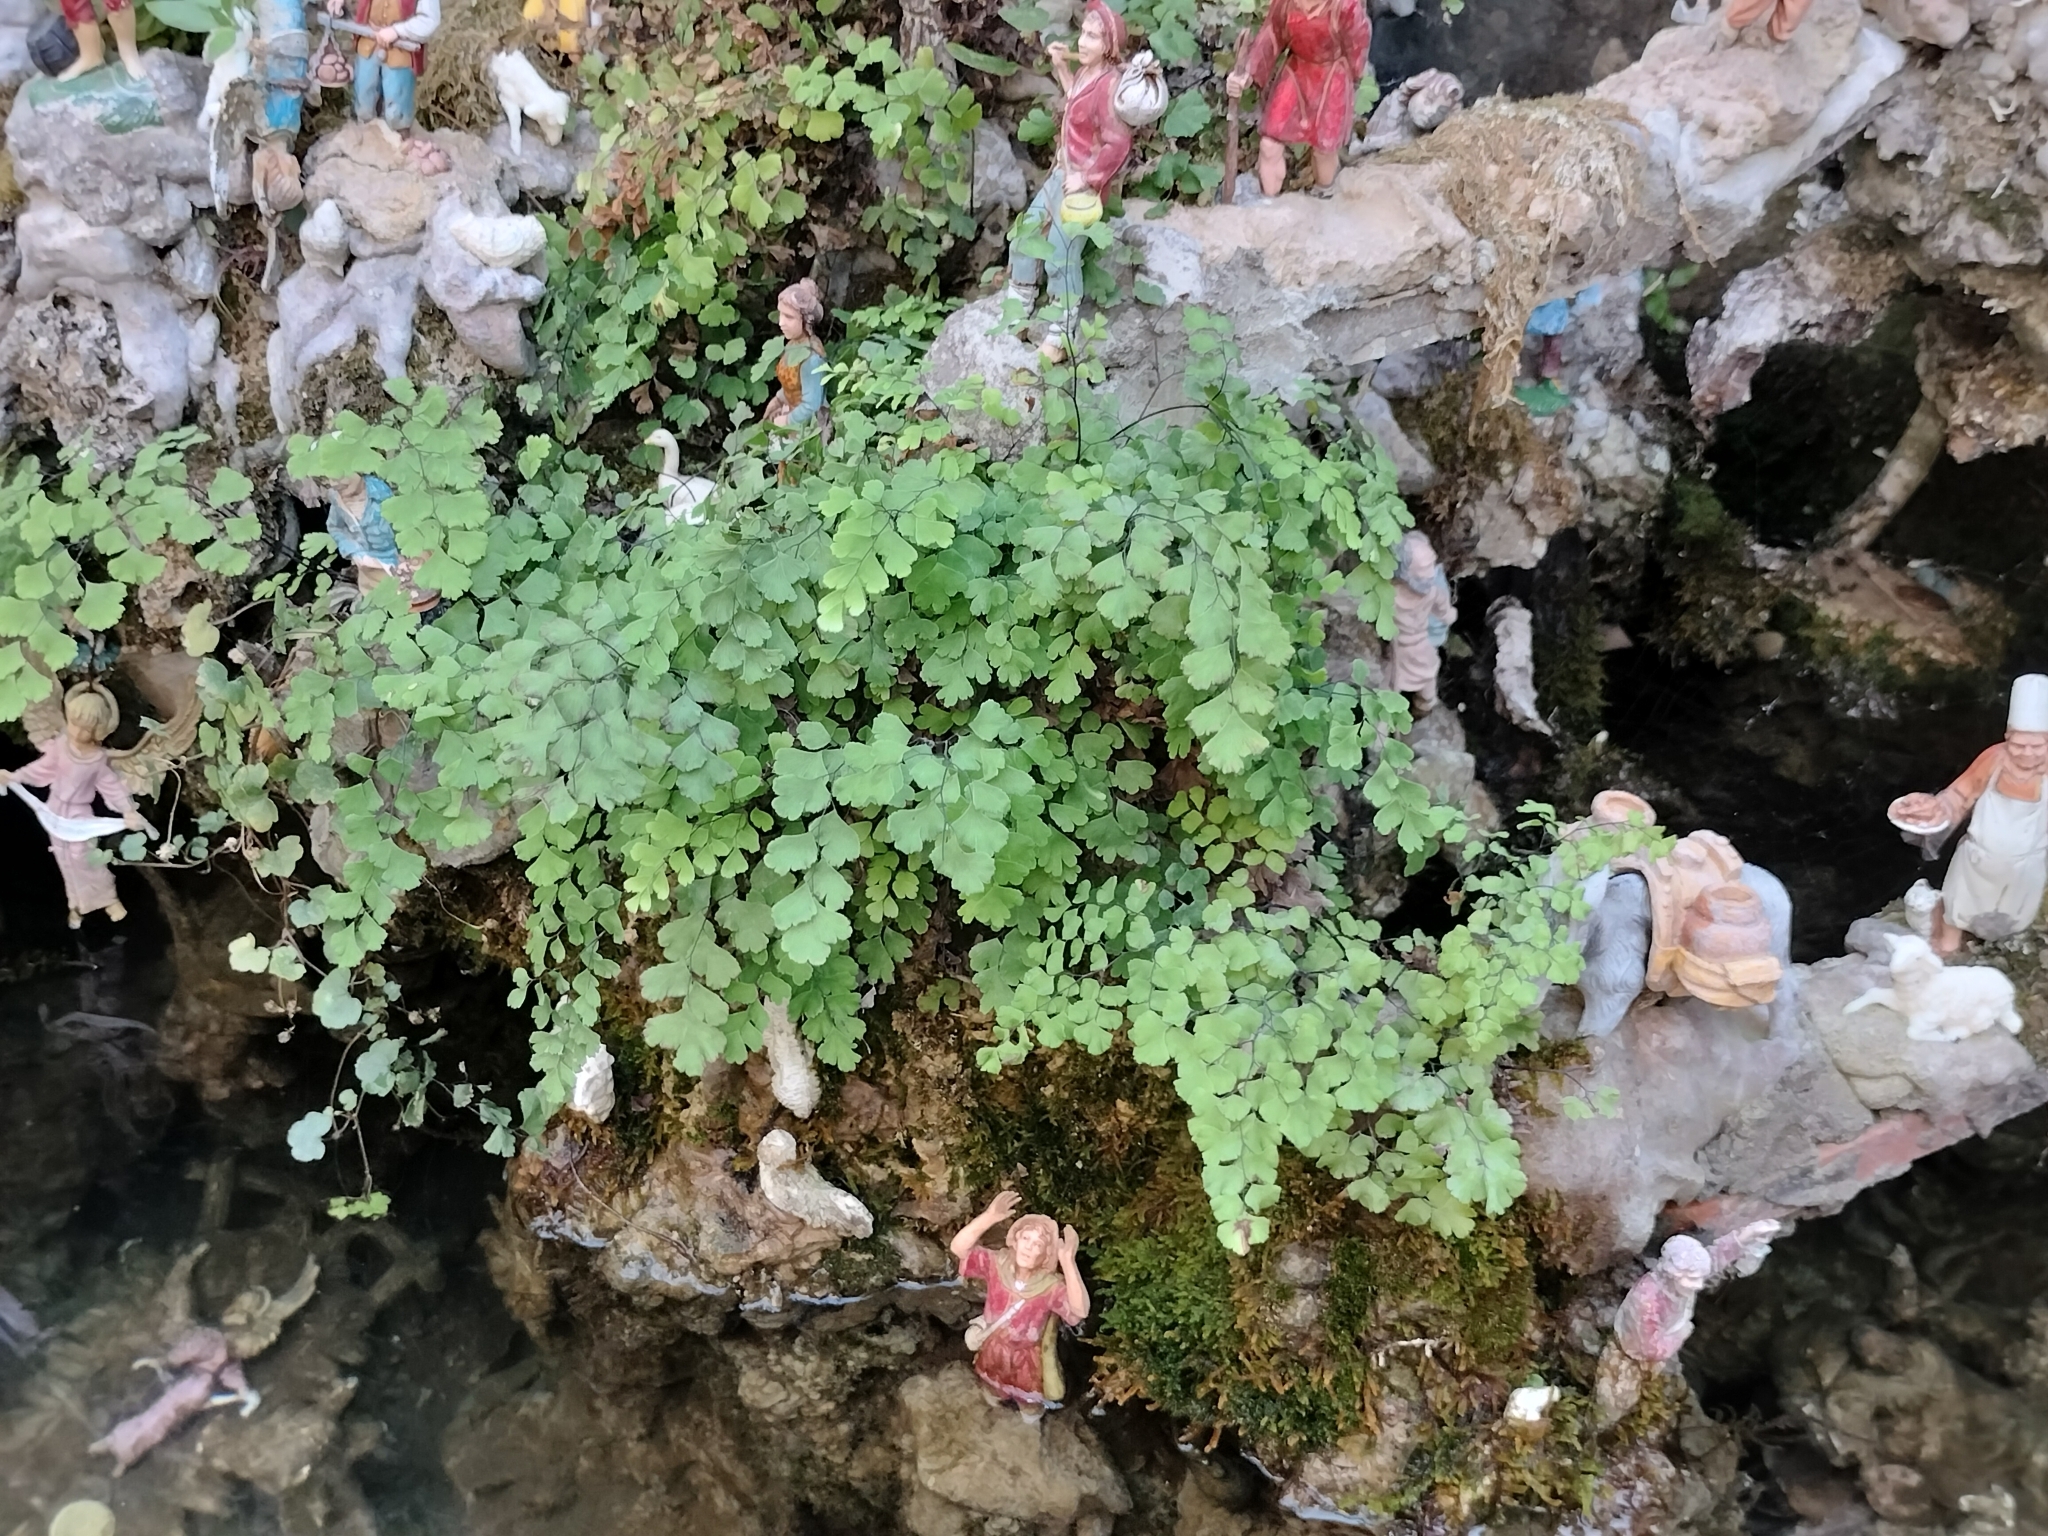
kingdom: Plantae
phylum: Tracheophyta
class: Polypodiopsida
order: Polypodiales
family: Pteridaceae
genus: Adiantum
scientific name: Adiantum capillus-veneris
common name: Maidenhair fern
